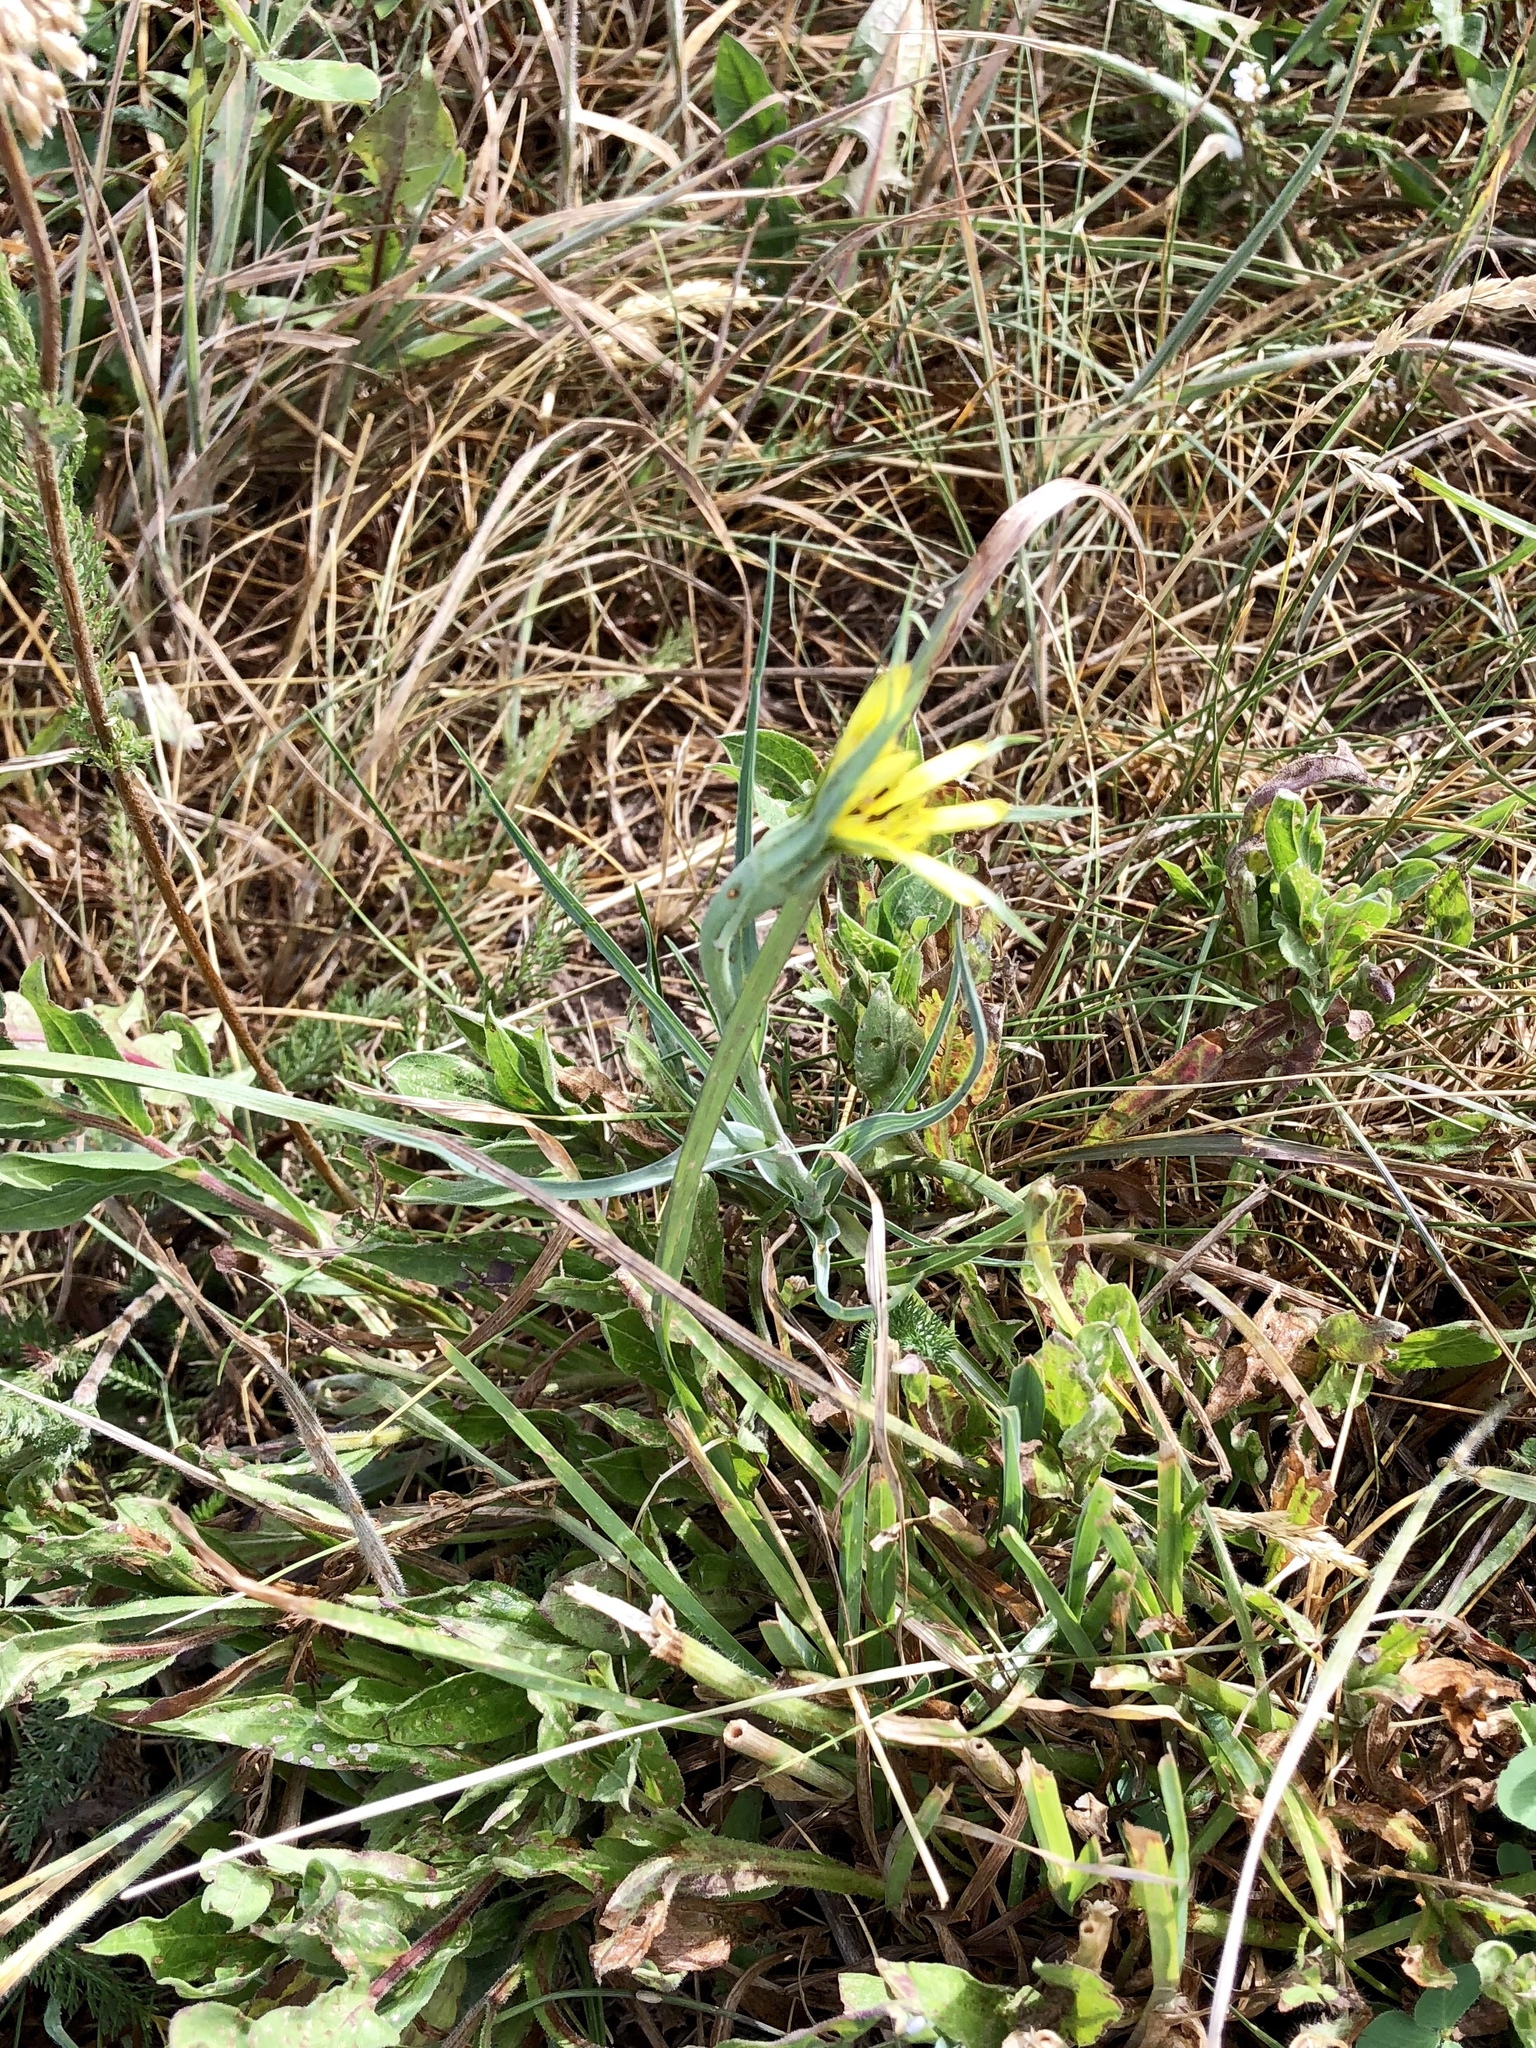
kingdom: Plantae
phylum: Tracheophyta
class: Magnoliopsida
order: Asterales
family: Asteraceae
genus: Tragopogon
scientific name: Tragopogon dubius
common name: Yellow salsify
